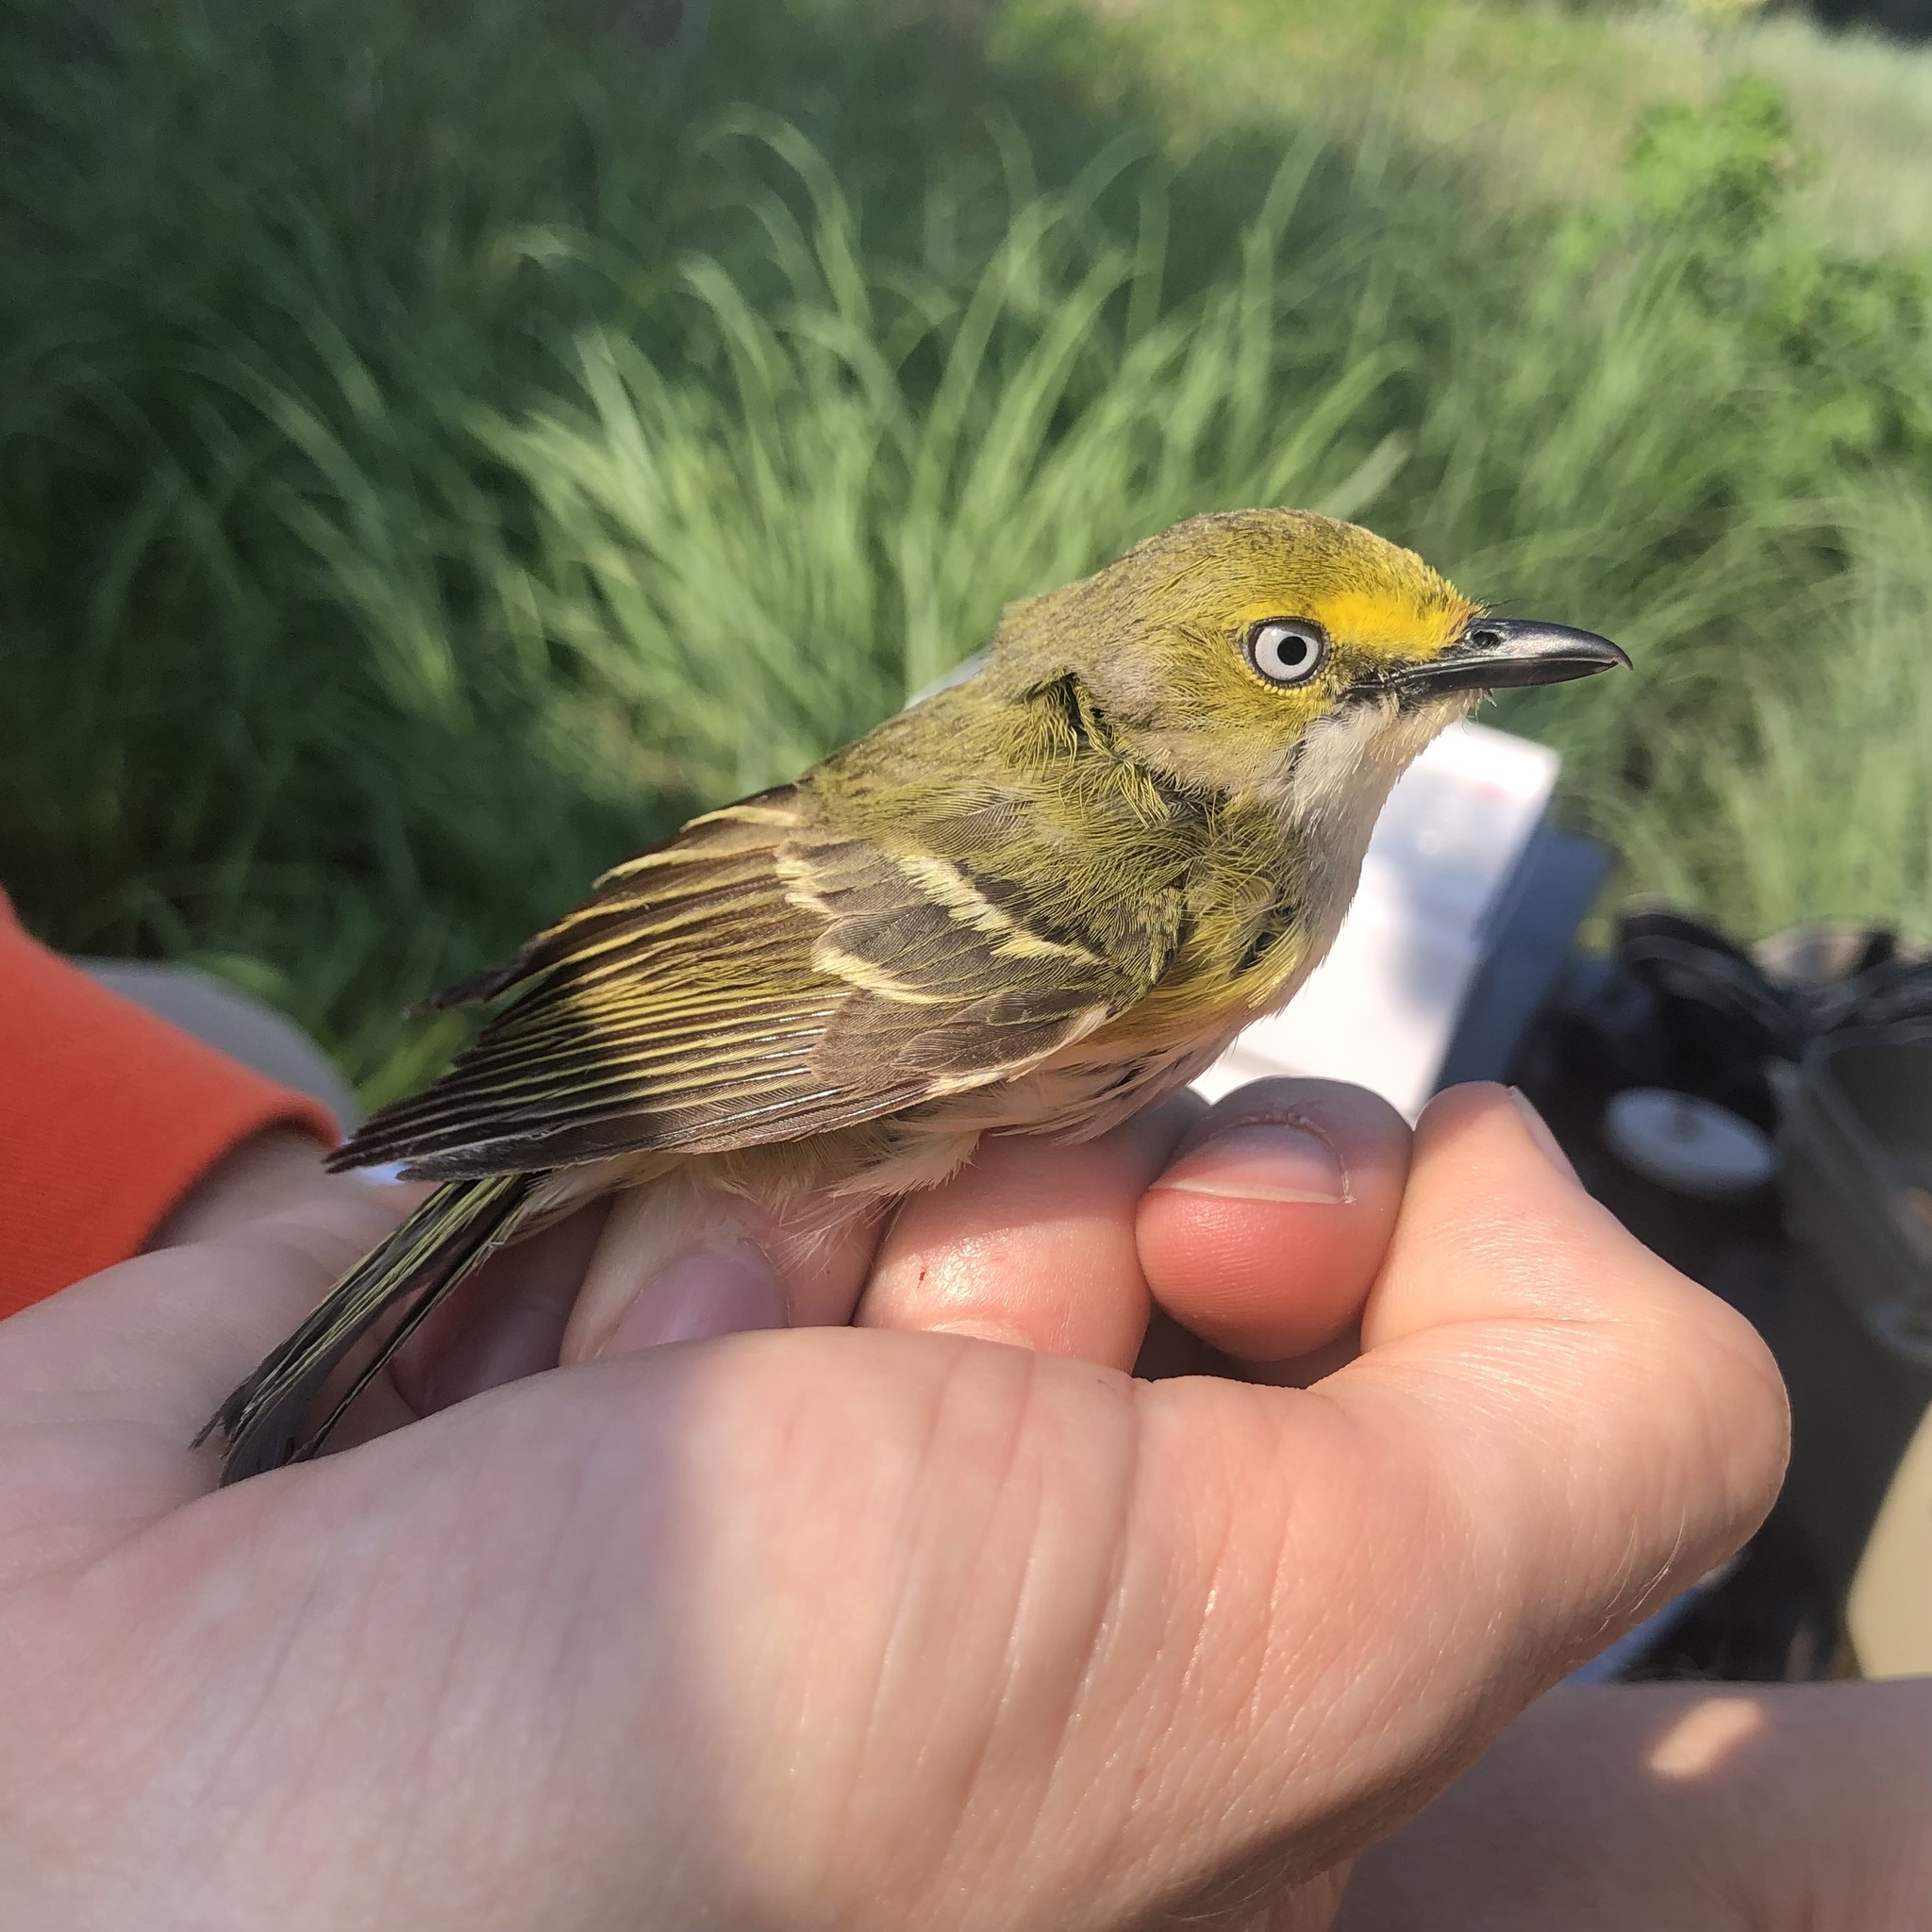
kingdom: Animalia
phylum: Chordata
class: Aves
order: Passeriformes
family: Vireonidae
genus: Vireo
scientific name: Vireo griseus
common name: White-eyed vireo
